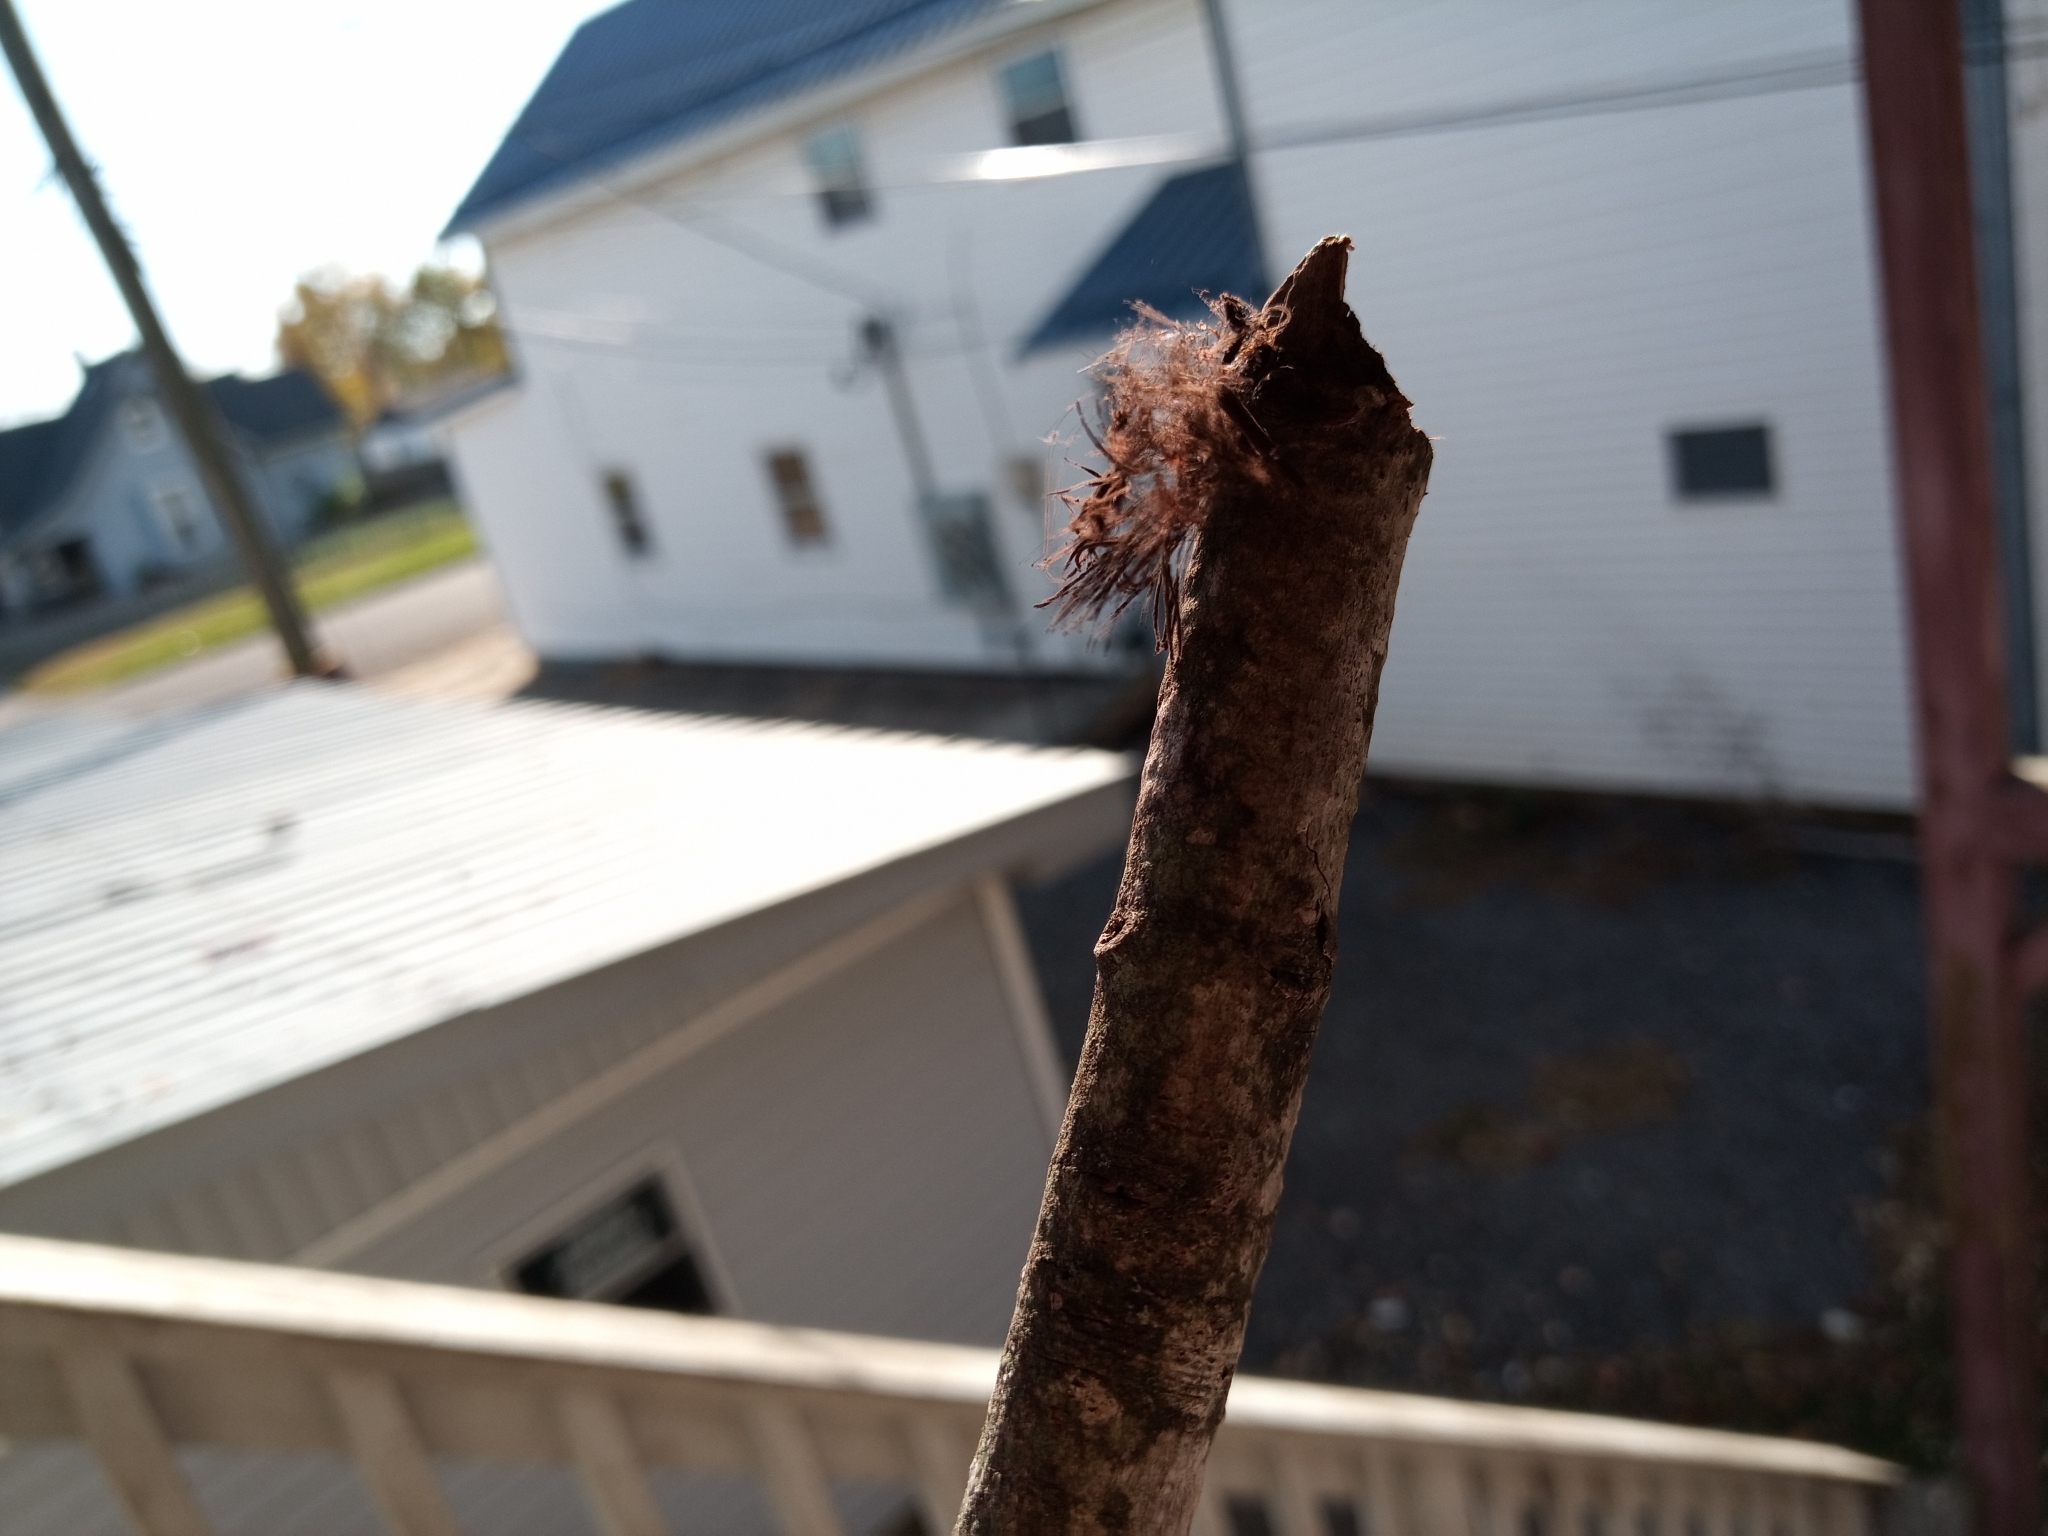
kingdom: Protozoa
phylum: Mycetozoa
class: Myxomycetes
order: Stemonitidales
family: Stemonitidaceae
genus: Stemonitis
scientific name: Stemonitis splendens
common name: Chocolate tube slime
